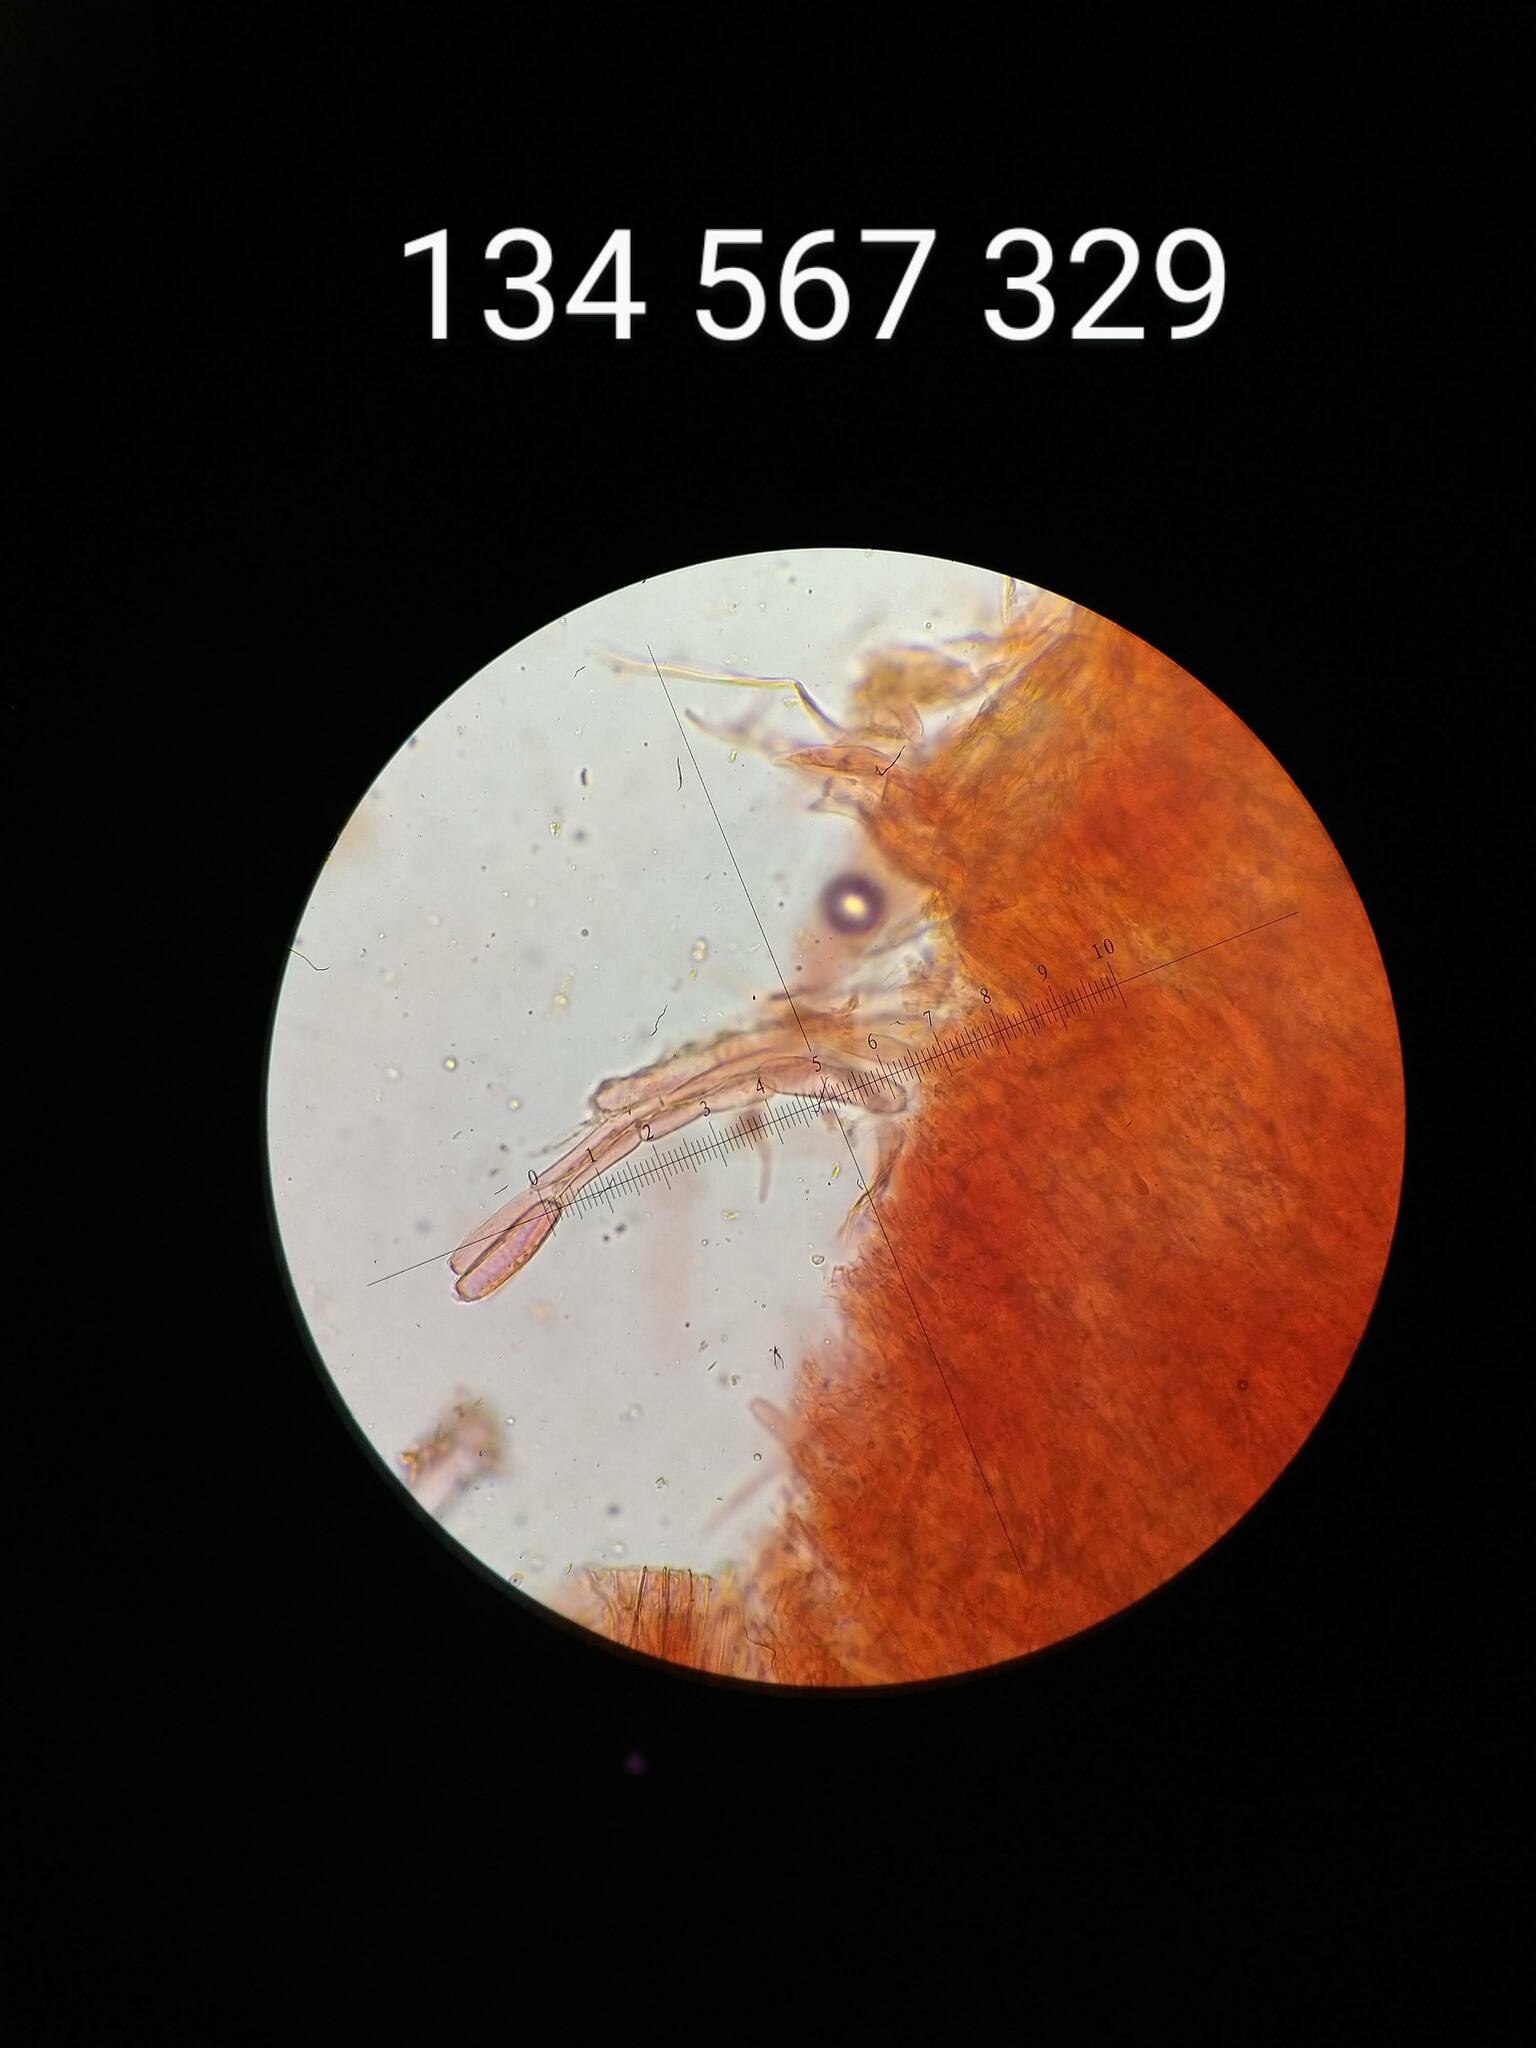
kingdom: Fungi
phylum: Basidiomycota
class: Agaricomycetes
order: Agaricales
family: Physalacriaceae
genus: Desarmillaria
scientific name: Desarmillaria caespitosa
